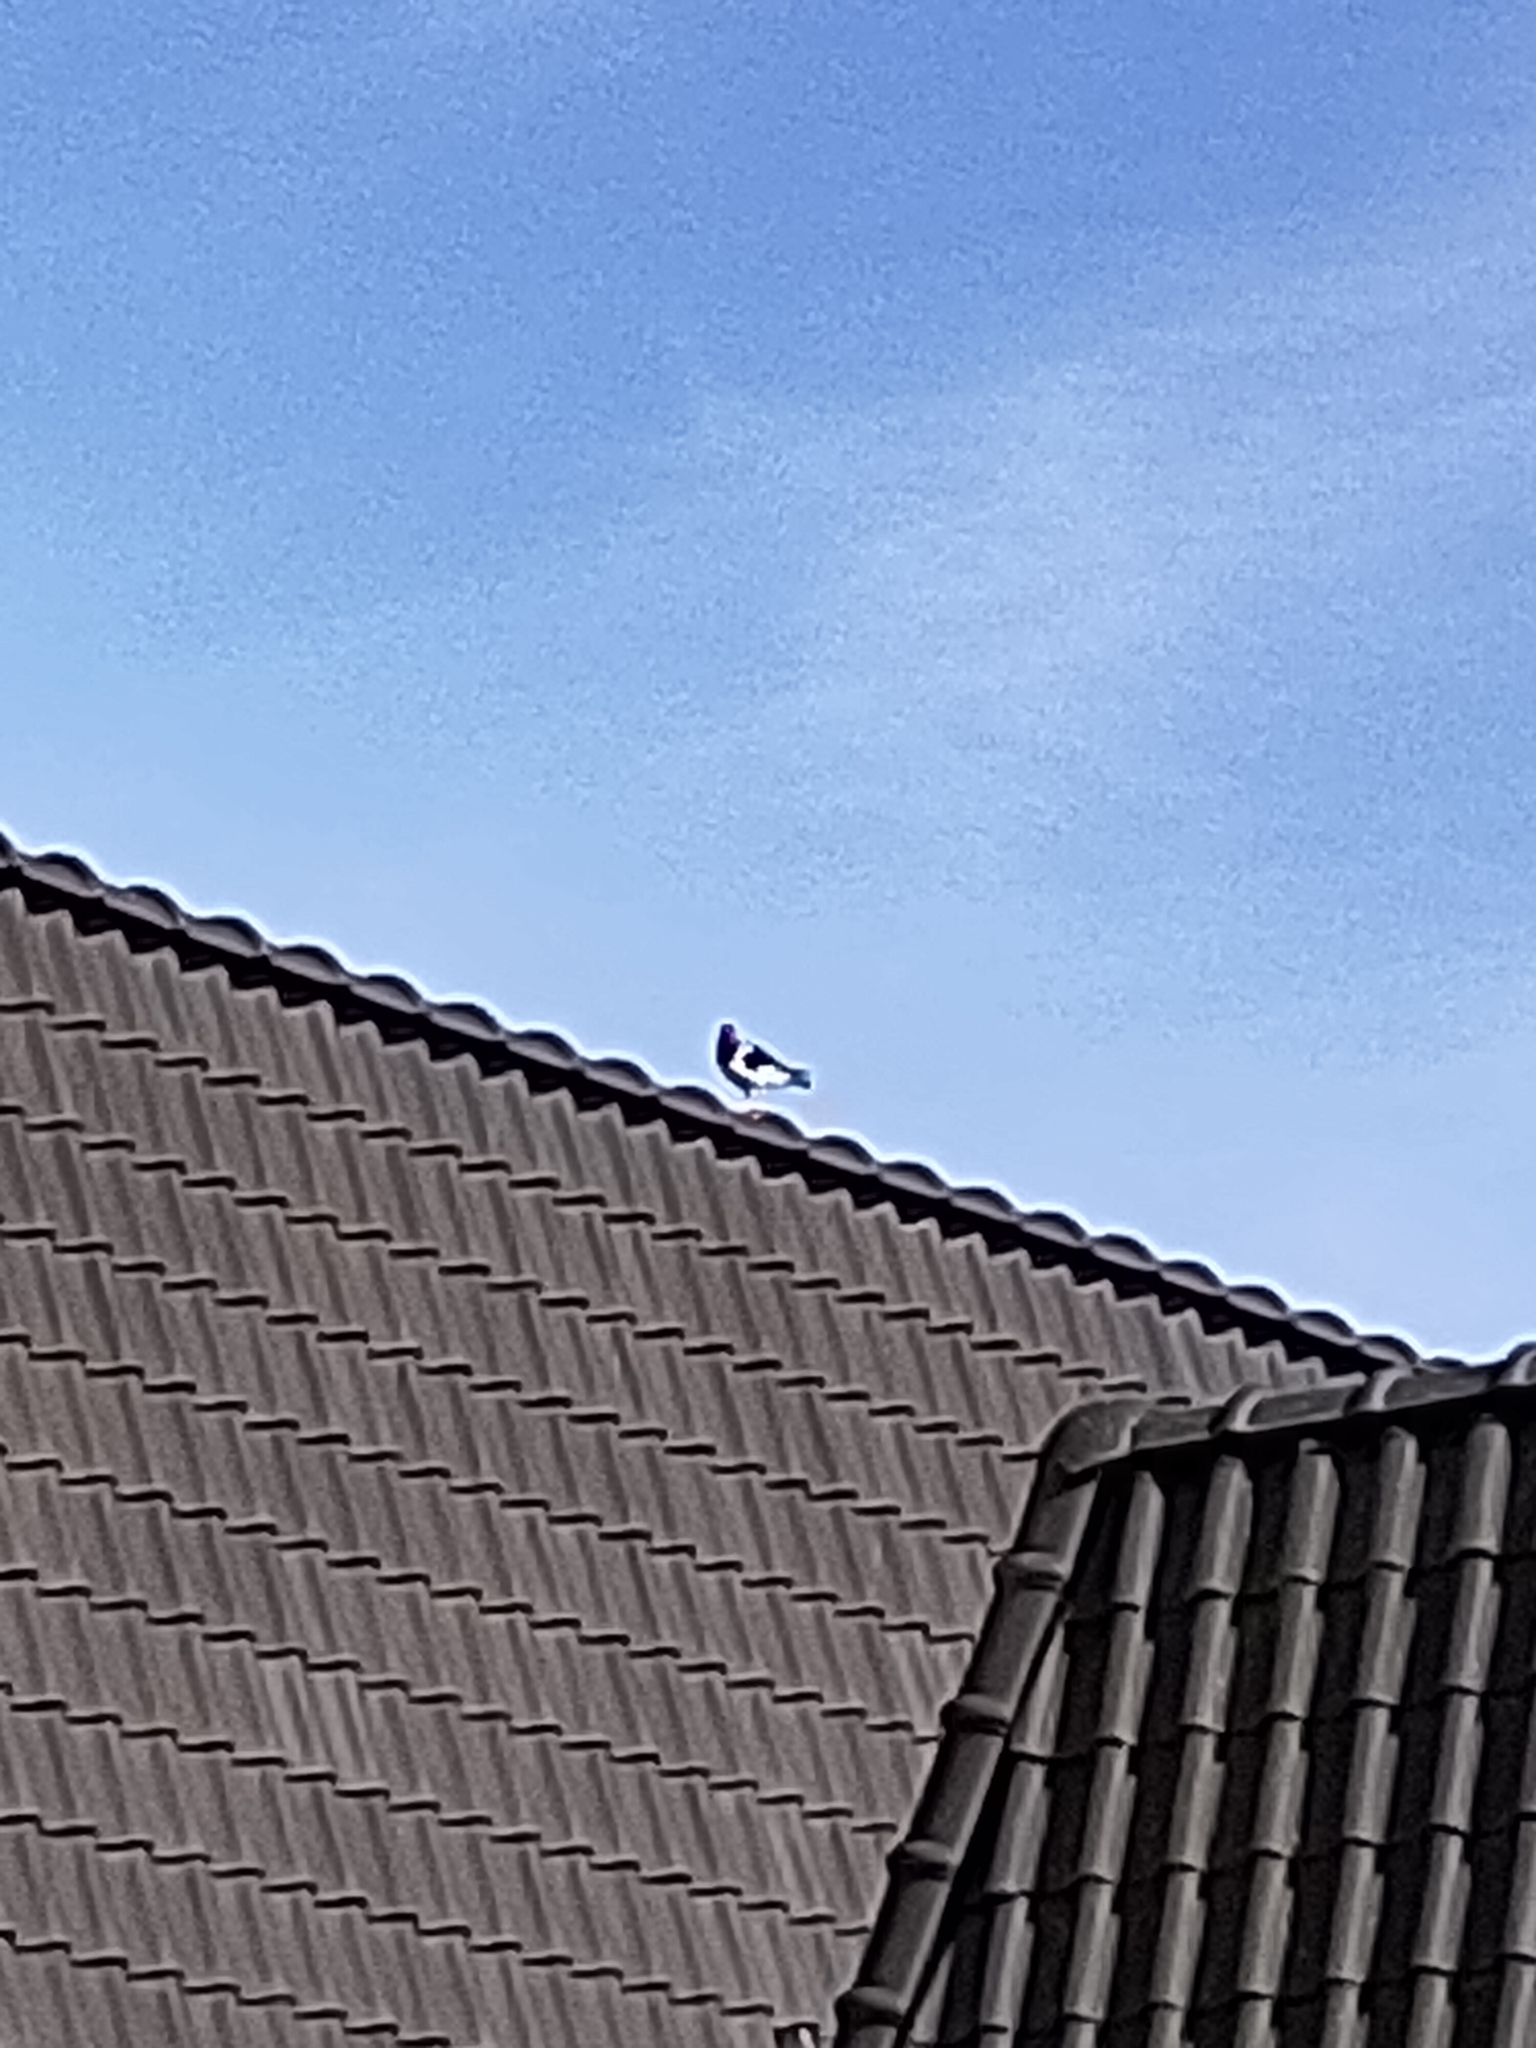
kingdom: Animalia
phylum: Chordata
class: Aves
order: Charadriiformes
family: Haematopodidae
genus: Haematopus
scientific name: Haematopus ostralegus
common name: Eurasian oystercatcher
